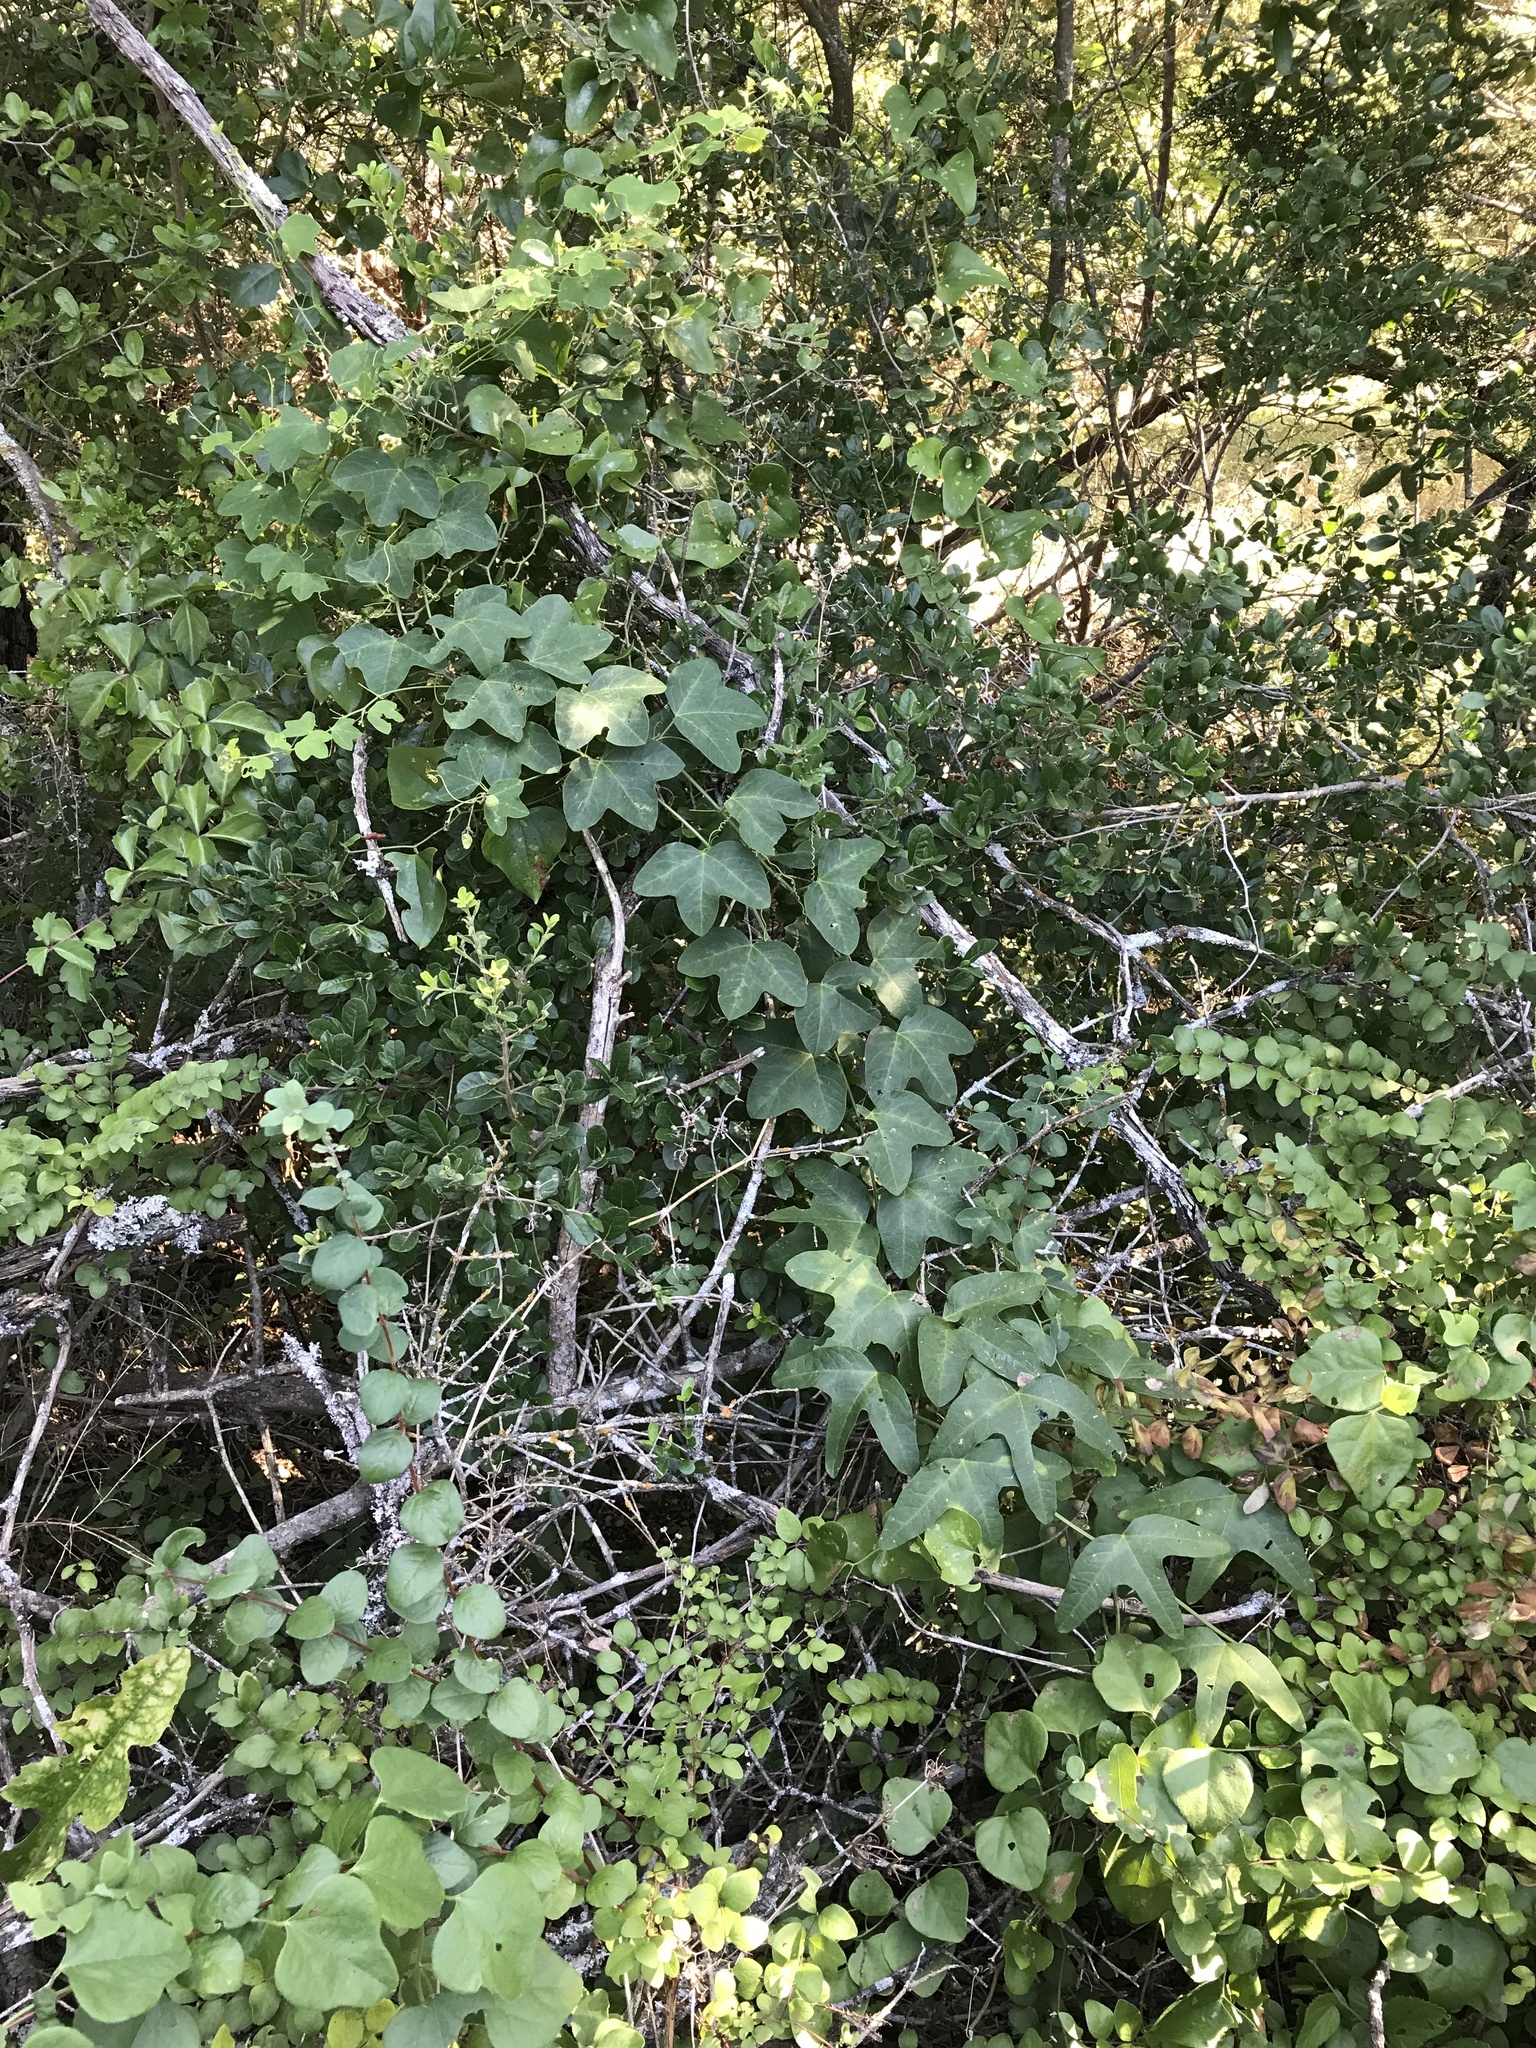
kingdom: Plantae
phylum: Tracheophyta
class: Magnoliopsida
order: Malpighiales
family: Passifloraceae
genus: Passiflora
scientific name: Passiflora lutea
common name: Yellow passionflower
